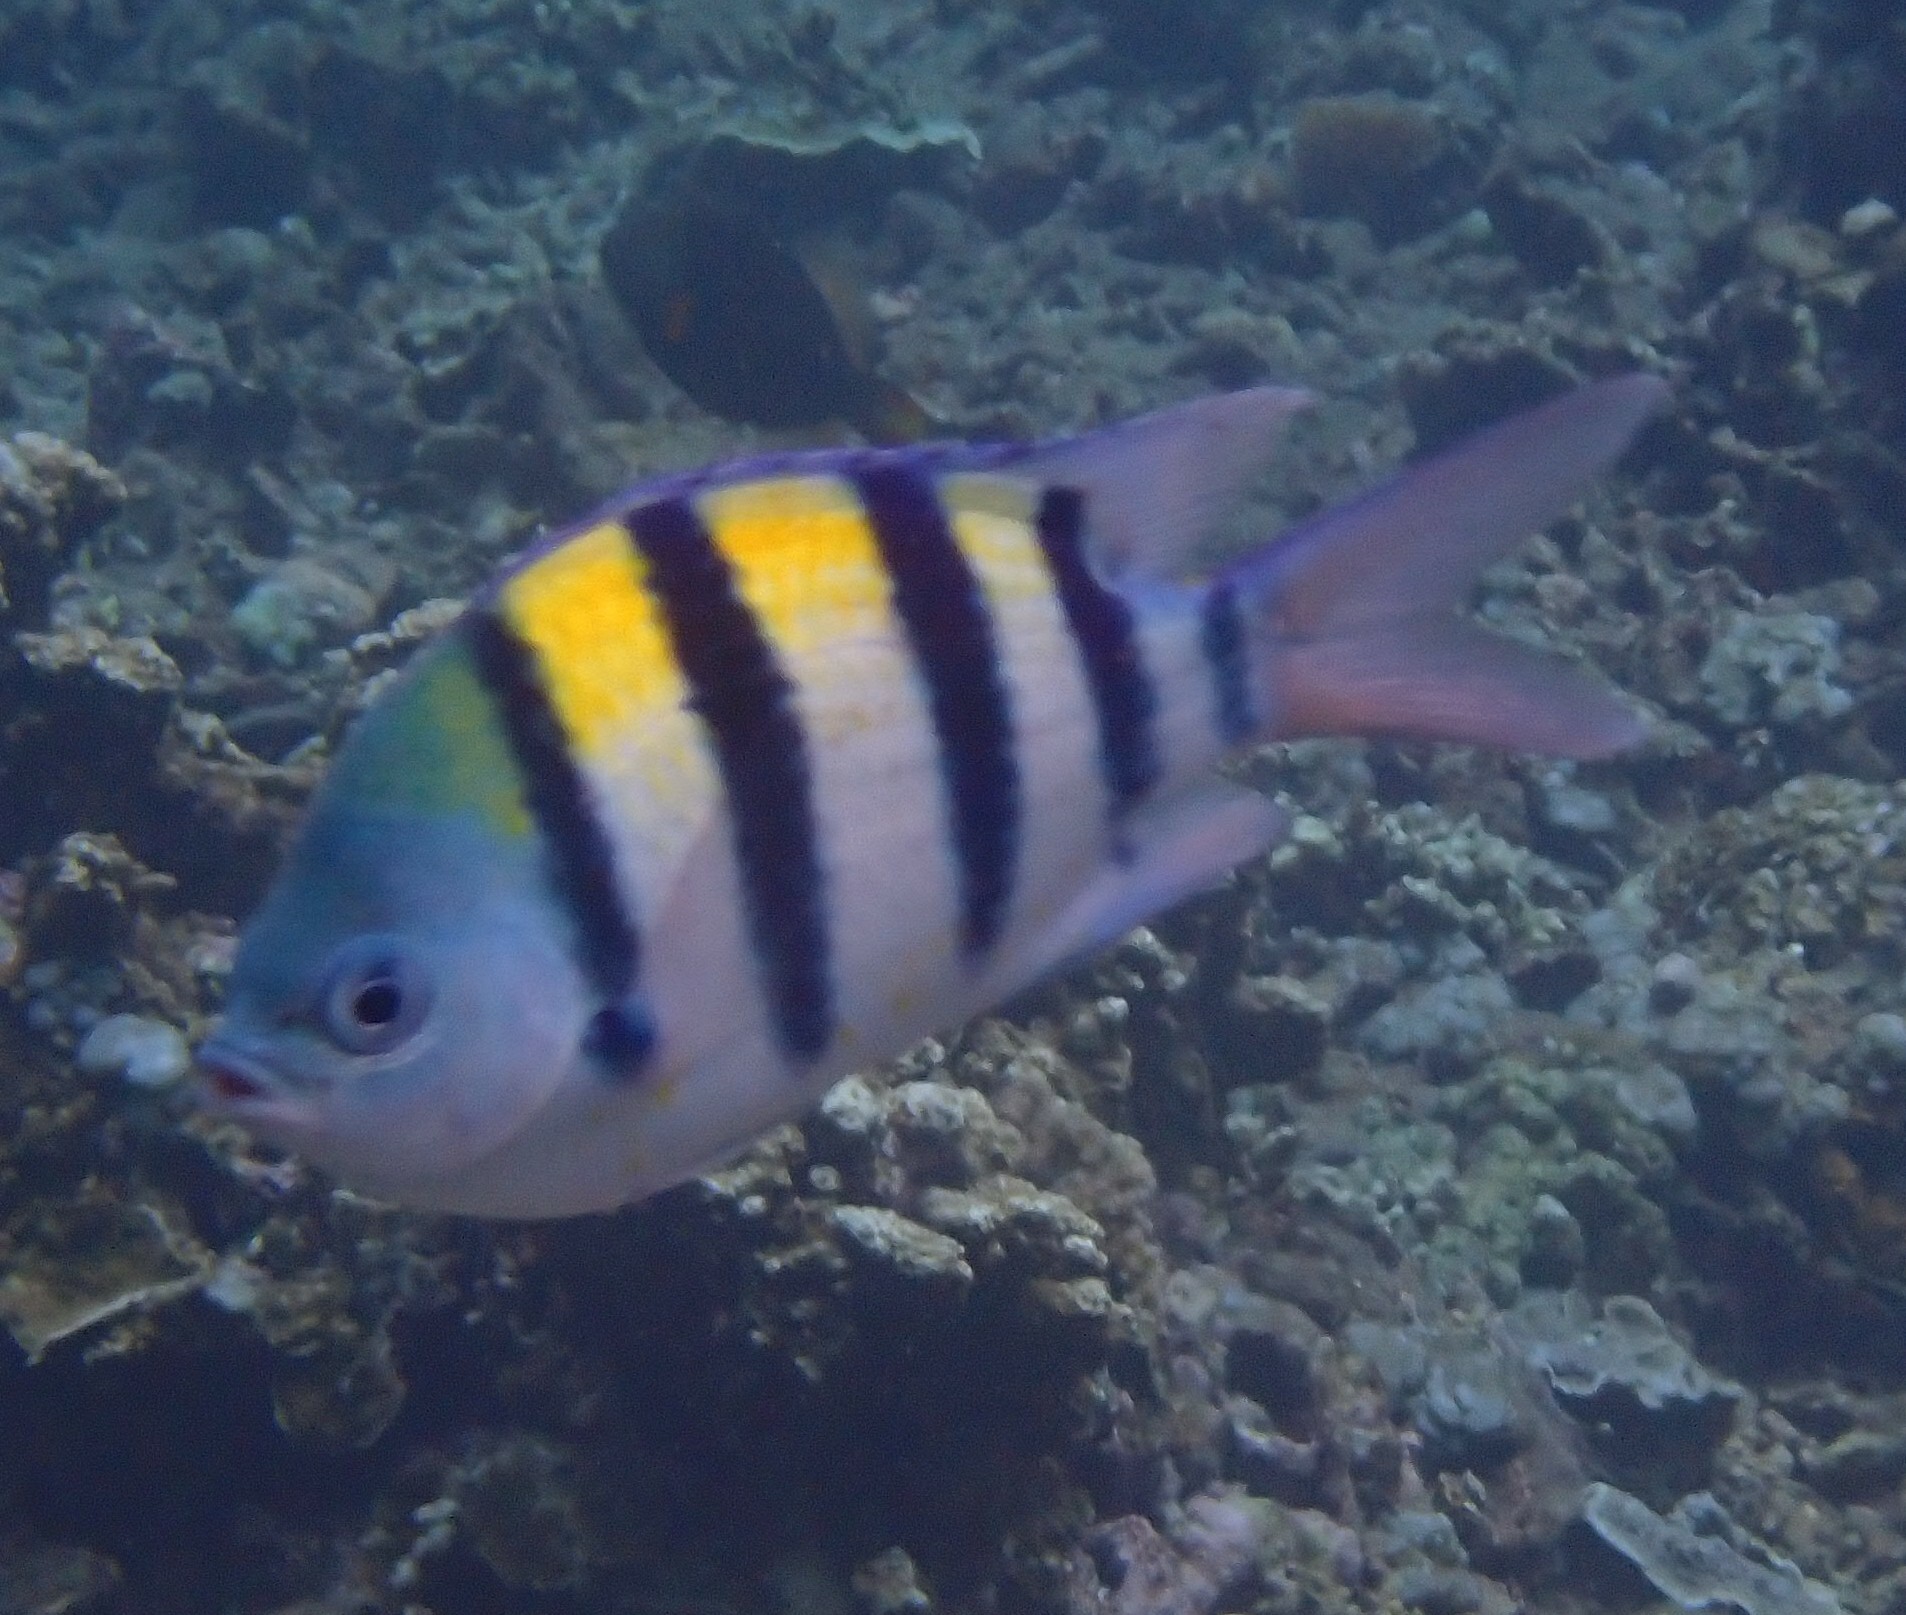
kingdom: Animalia
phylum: Chordata
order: Perciformes
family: Pomacentridae
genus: Abudefduf
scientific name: Abudefduf vaigiensis
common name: Indo-pacific sergeant
